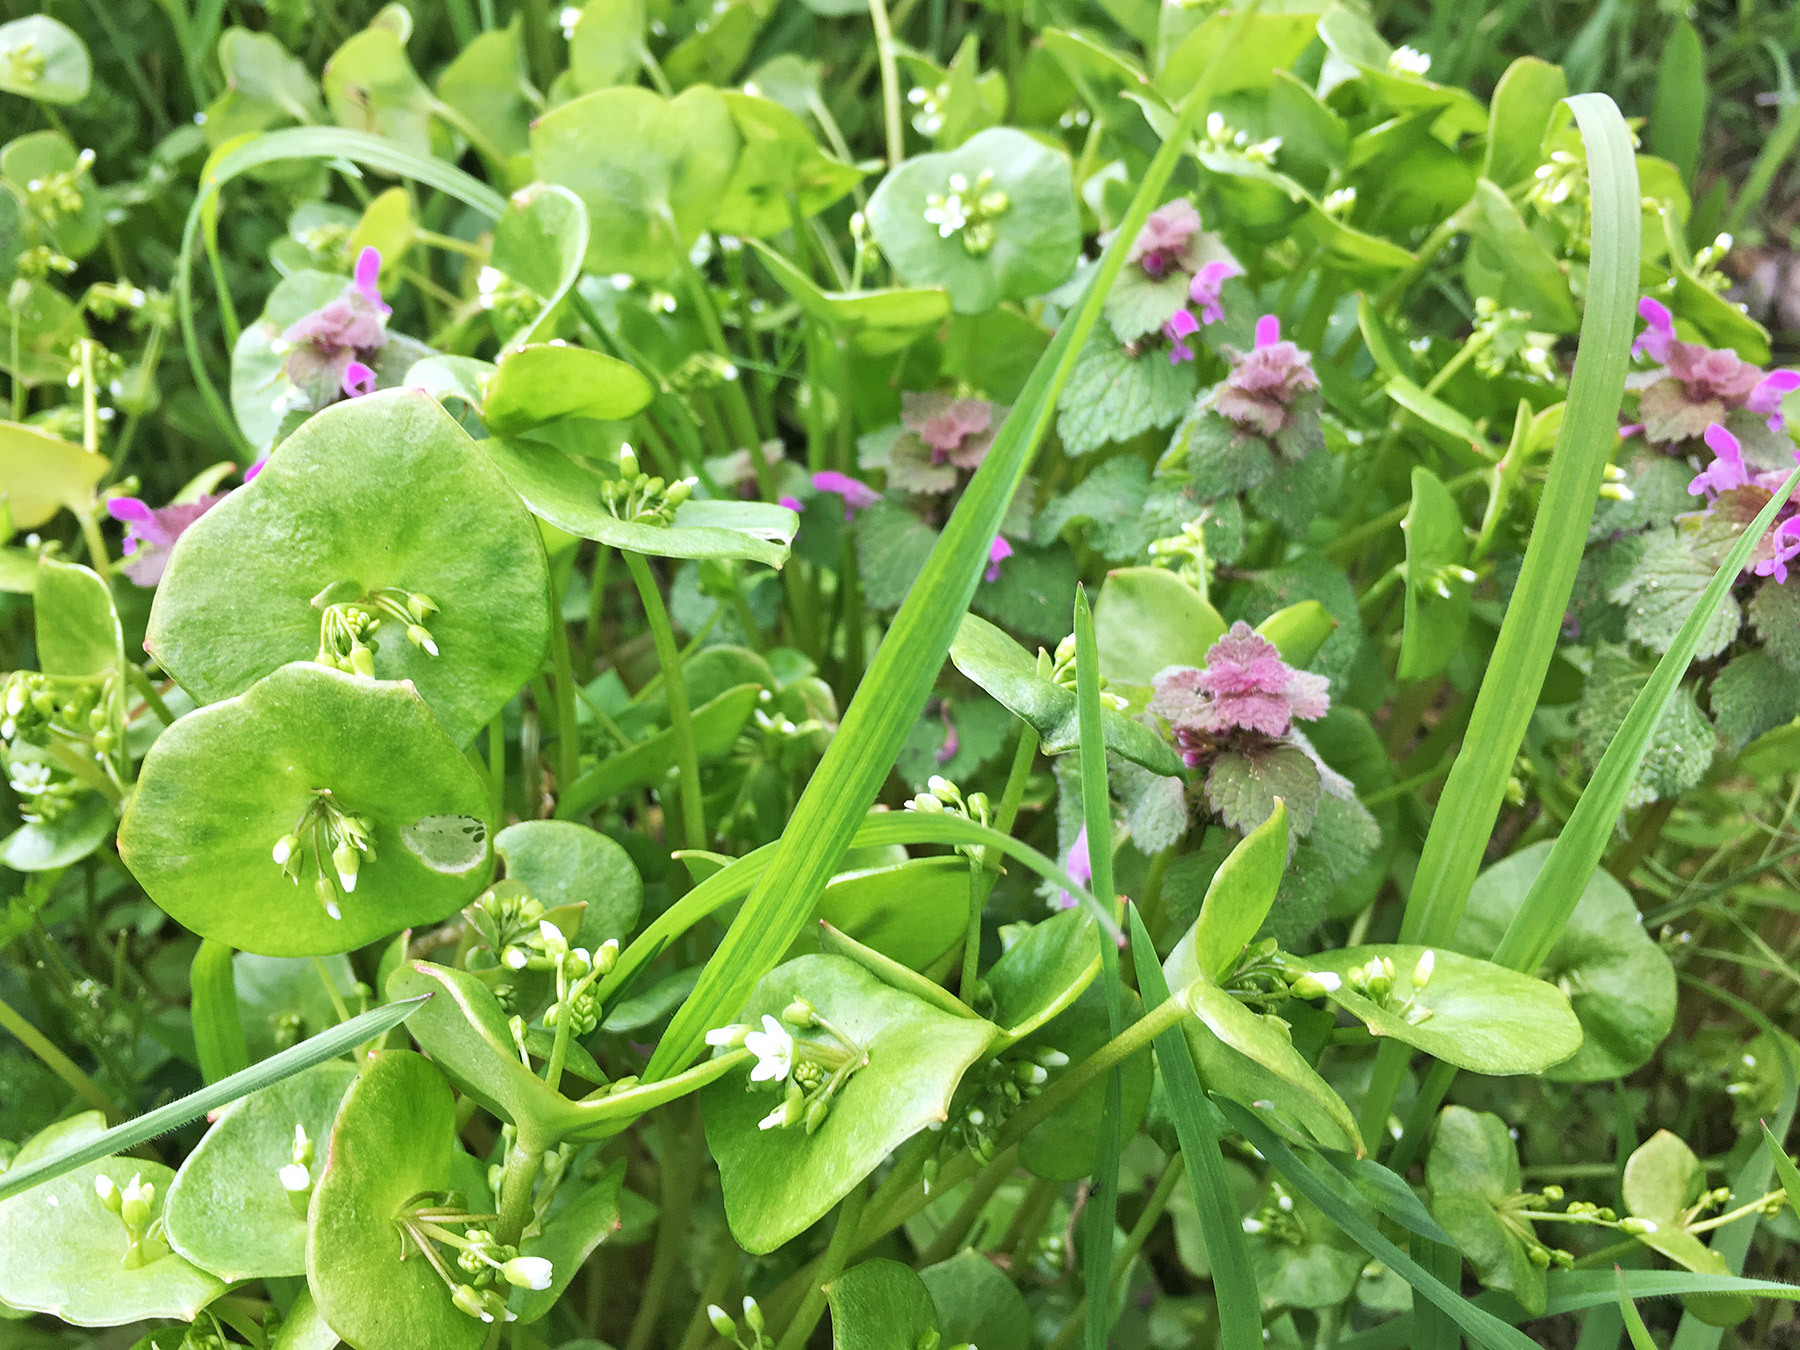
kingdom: Plantae
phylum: Tracheophyta
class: Magnoliopsida
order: Caryophyllales
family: Montiaceae
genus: Claytonia
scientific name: Claytonia perfoliata
